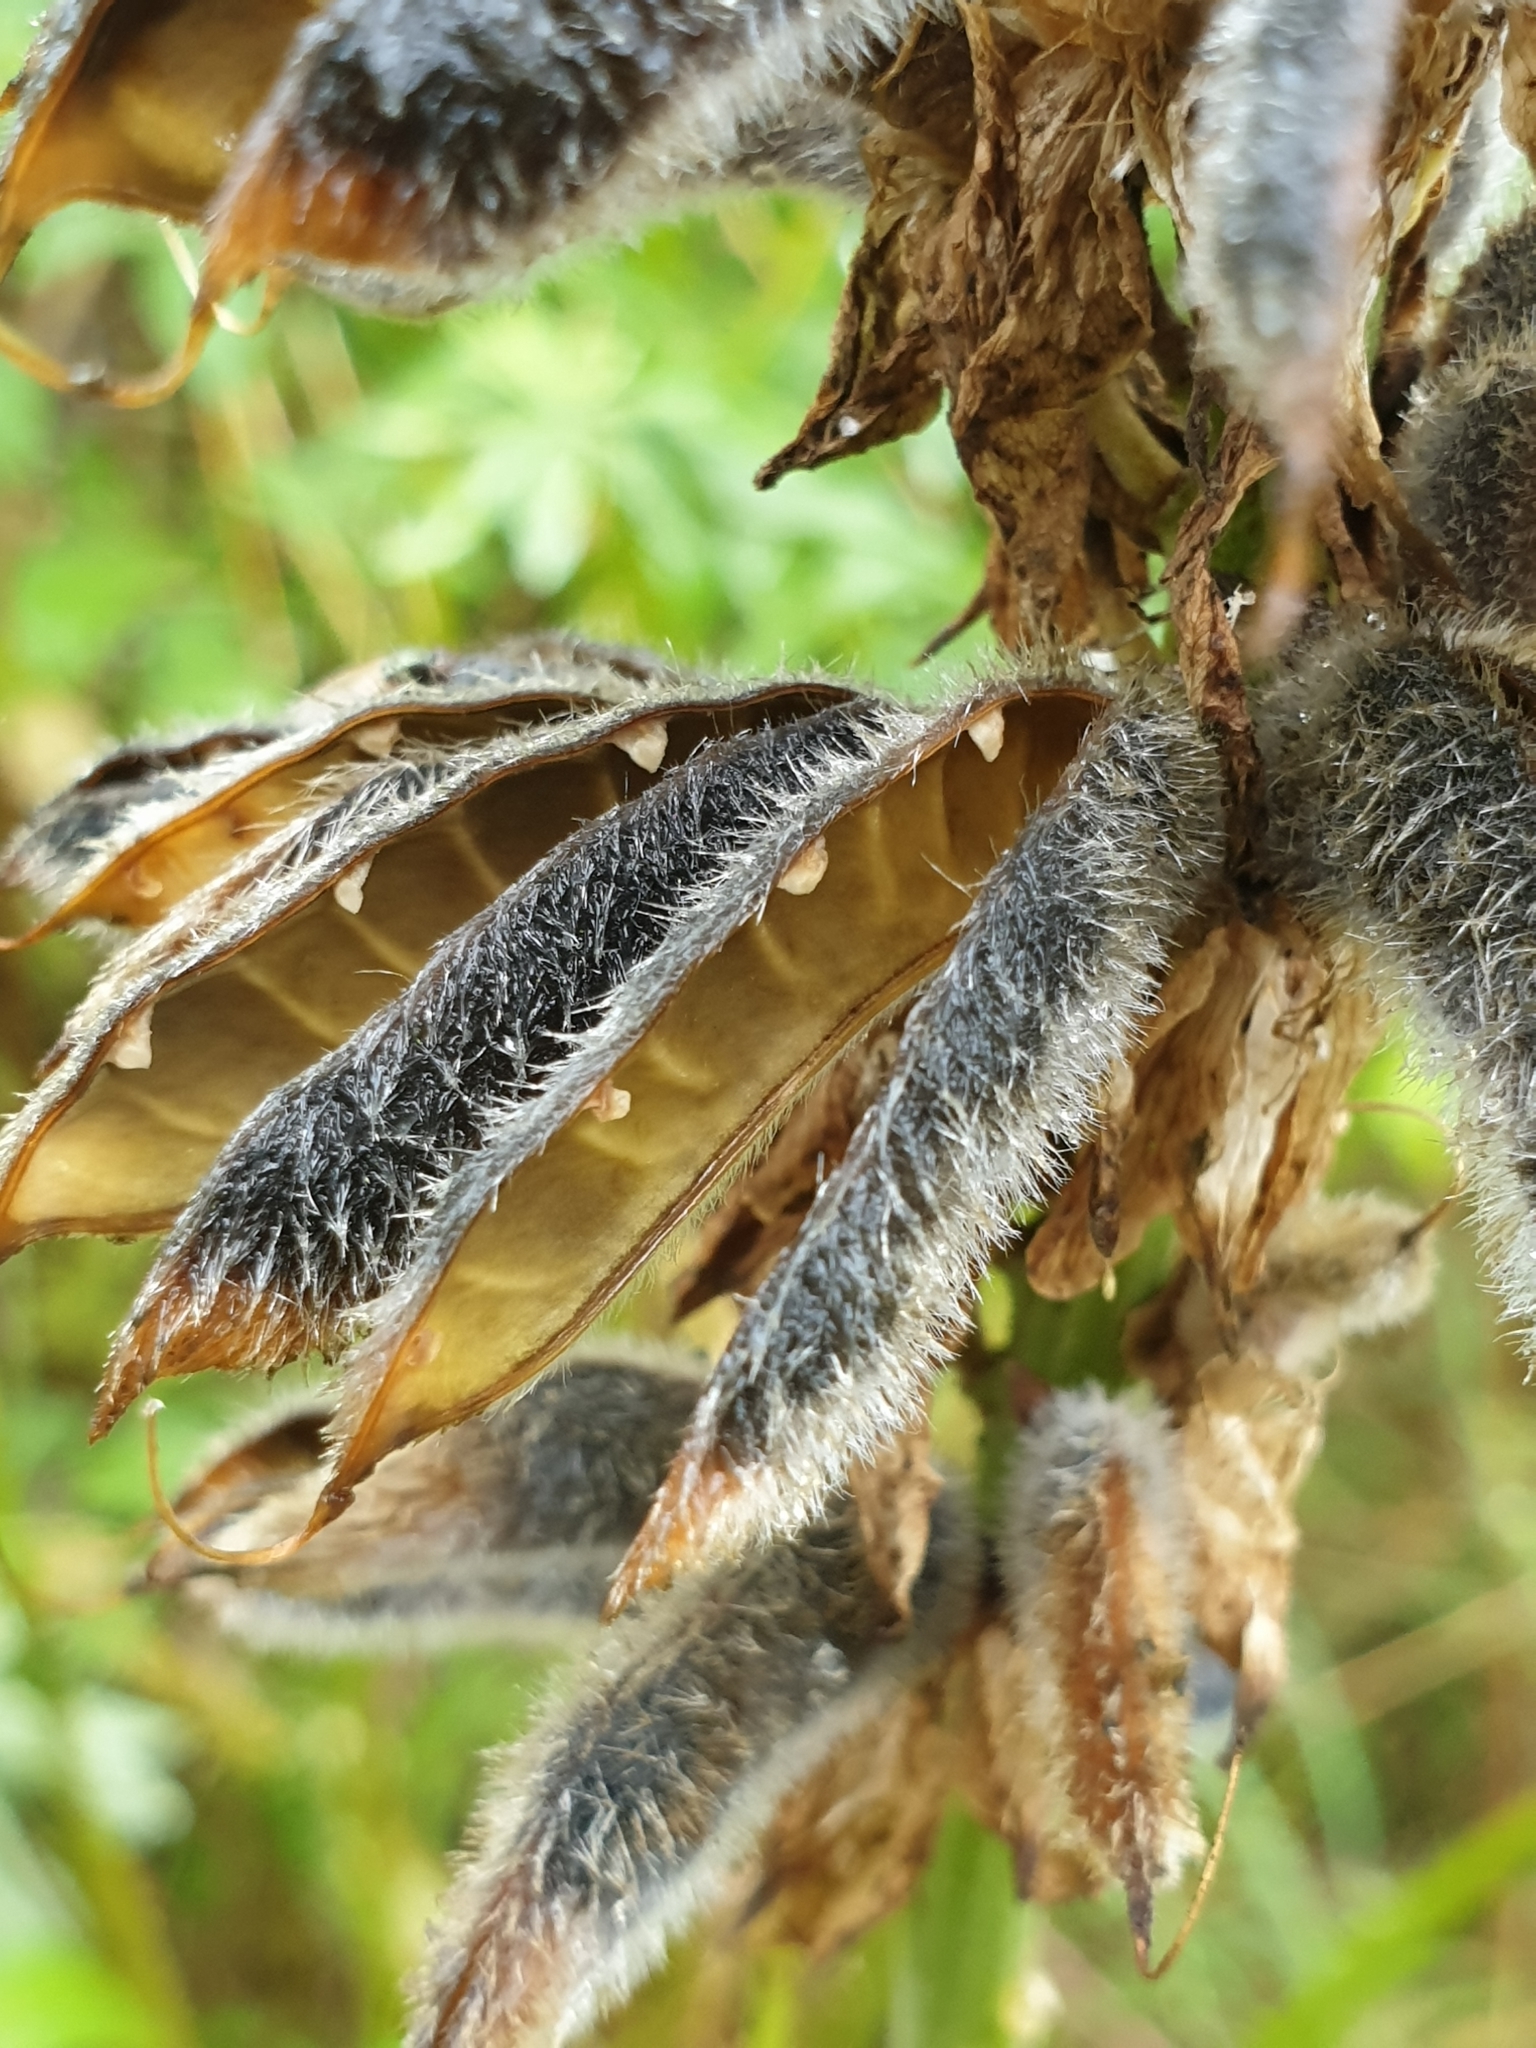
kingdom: Plantae
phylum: Tracheophyta
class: Magnoliopsida
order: Fabales
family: Fabaceae
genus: Lupinus
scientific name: Lupinus polyphyllus
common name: Garden lupin
